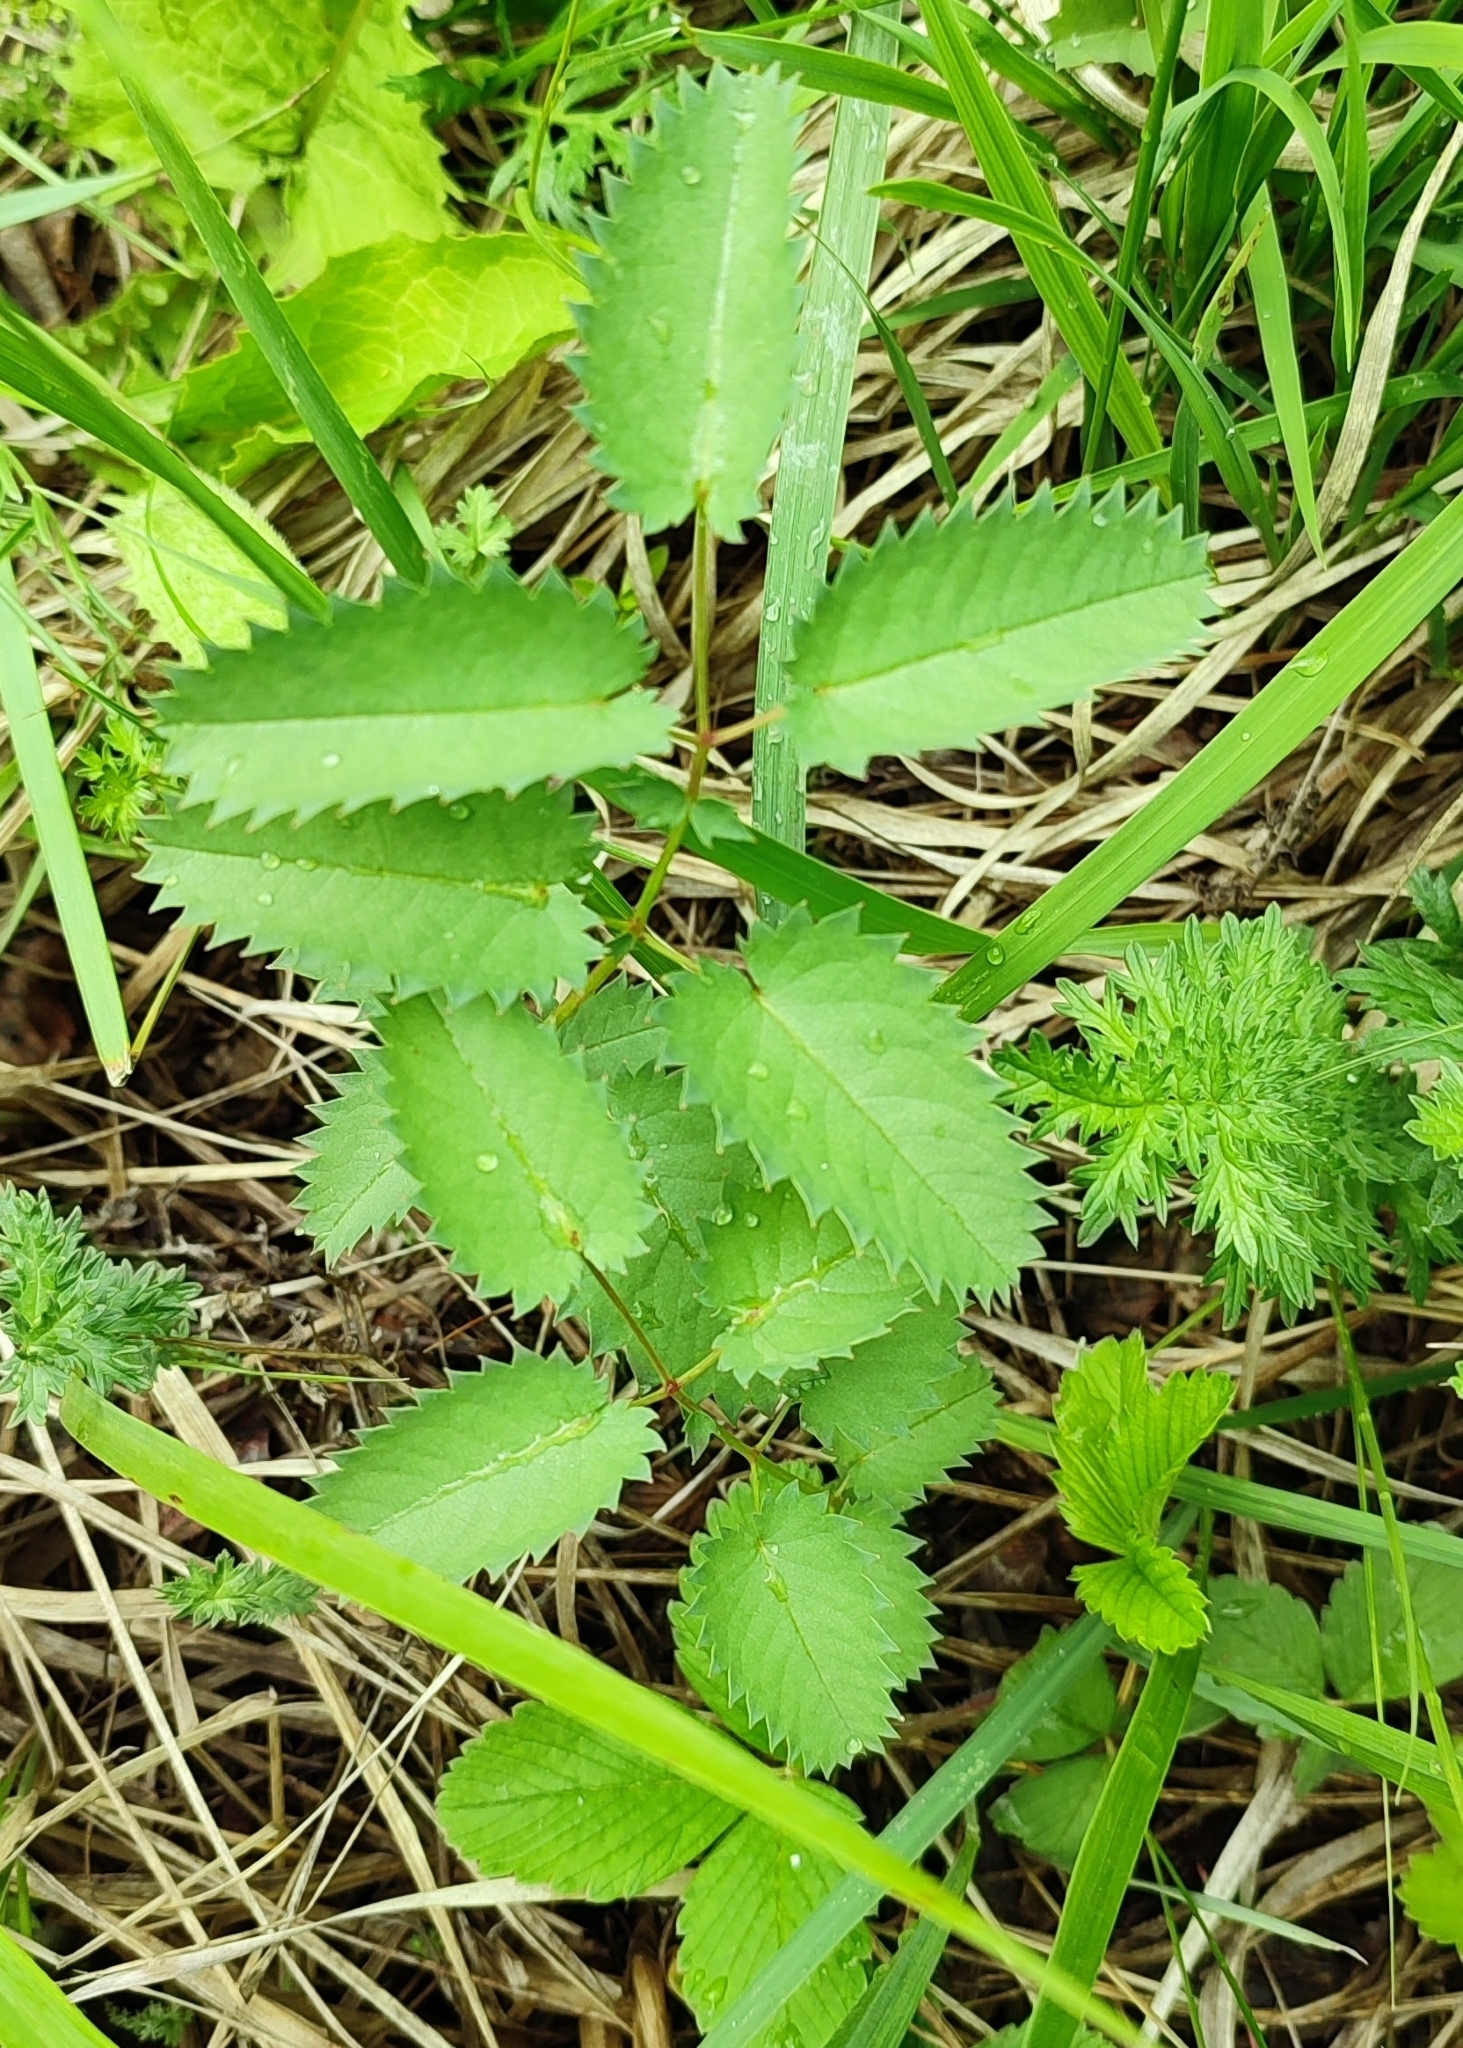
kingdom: Plantae
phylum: Tracheophyta
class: Magnoliopsida
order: Rosales
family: Rosaceae
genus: Sanguisorba
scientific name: Sanguisorba officinalis
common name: Great burnet
